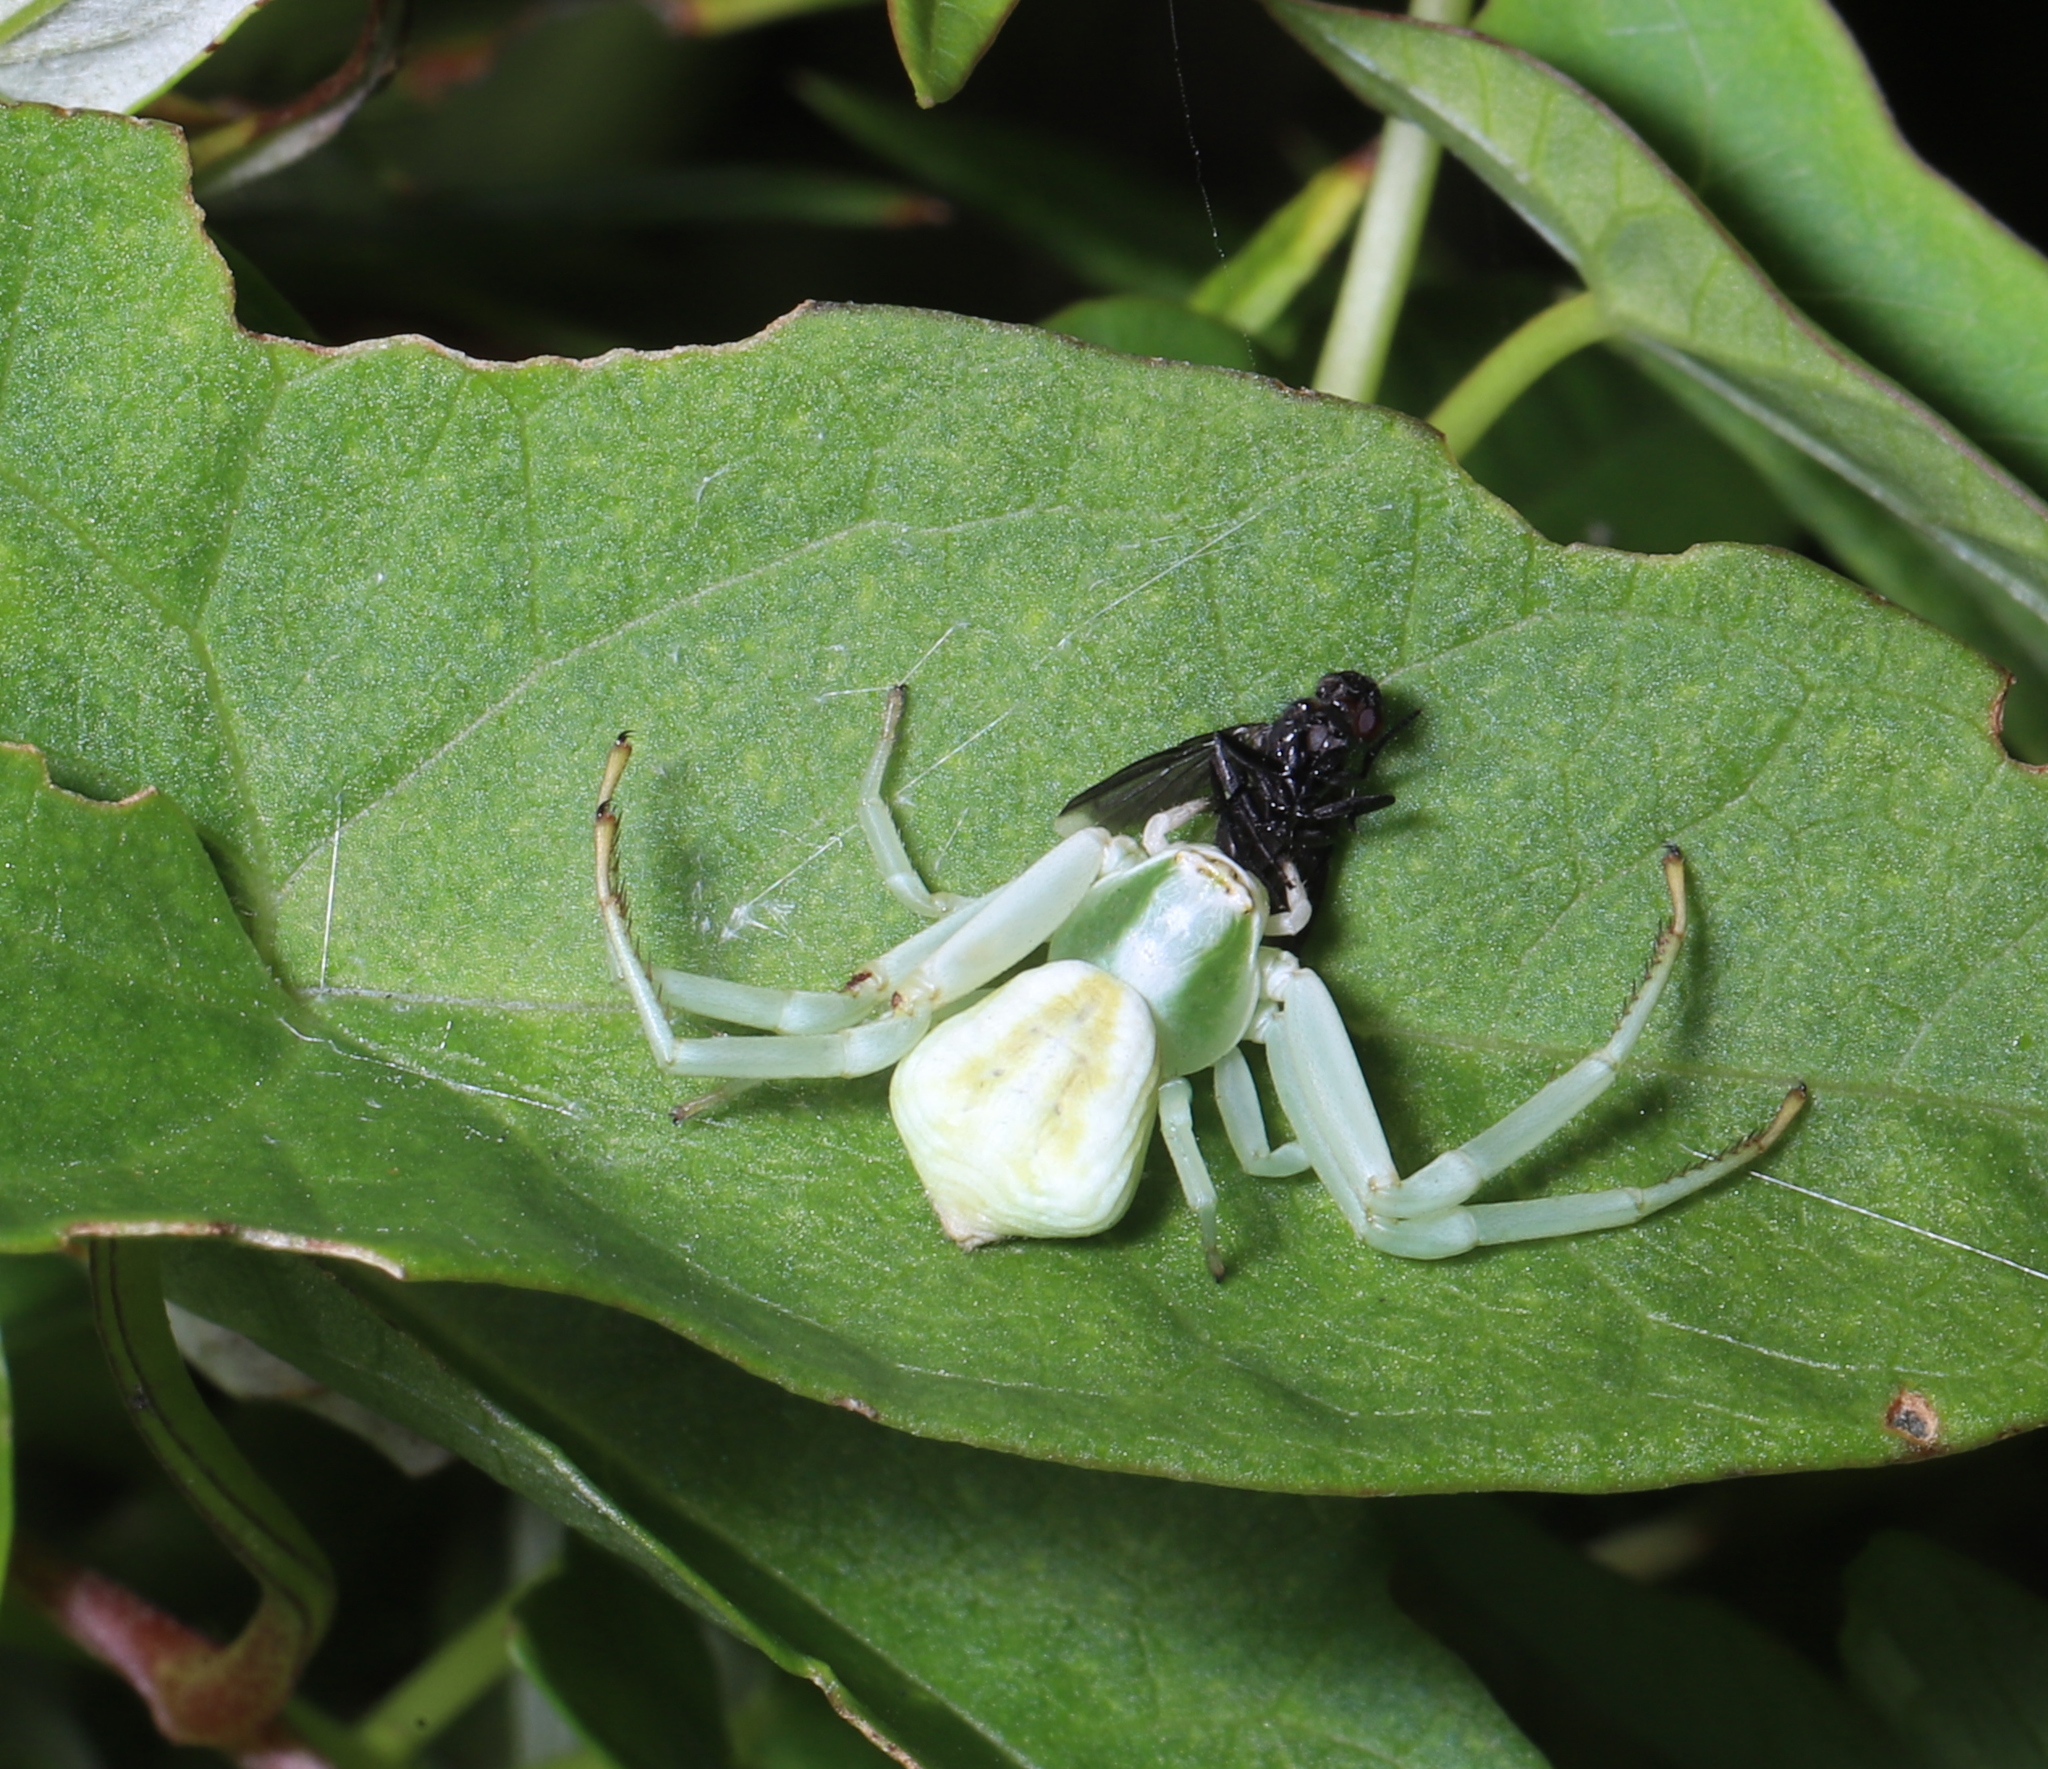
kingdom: Animalia
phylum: Arthropoda
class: Arachnida
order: Araneae
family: Thomisidae
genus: Misumenoides
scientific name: Misumenoides formosipes
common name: White-banded crab spider
